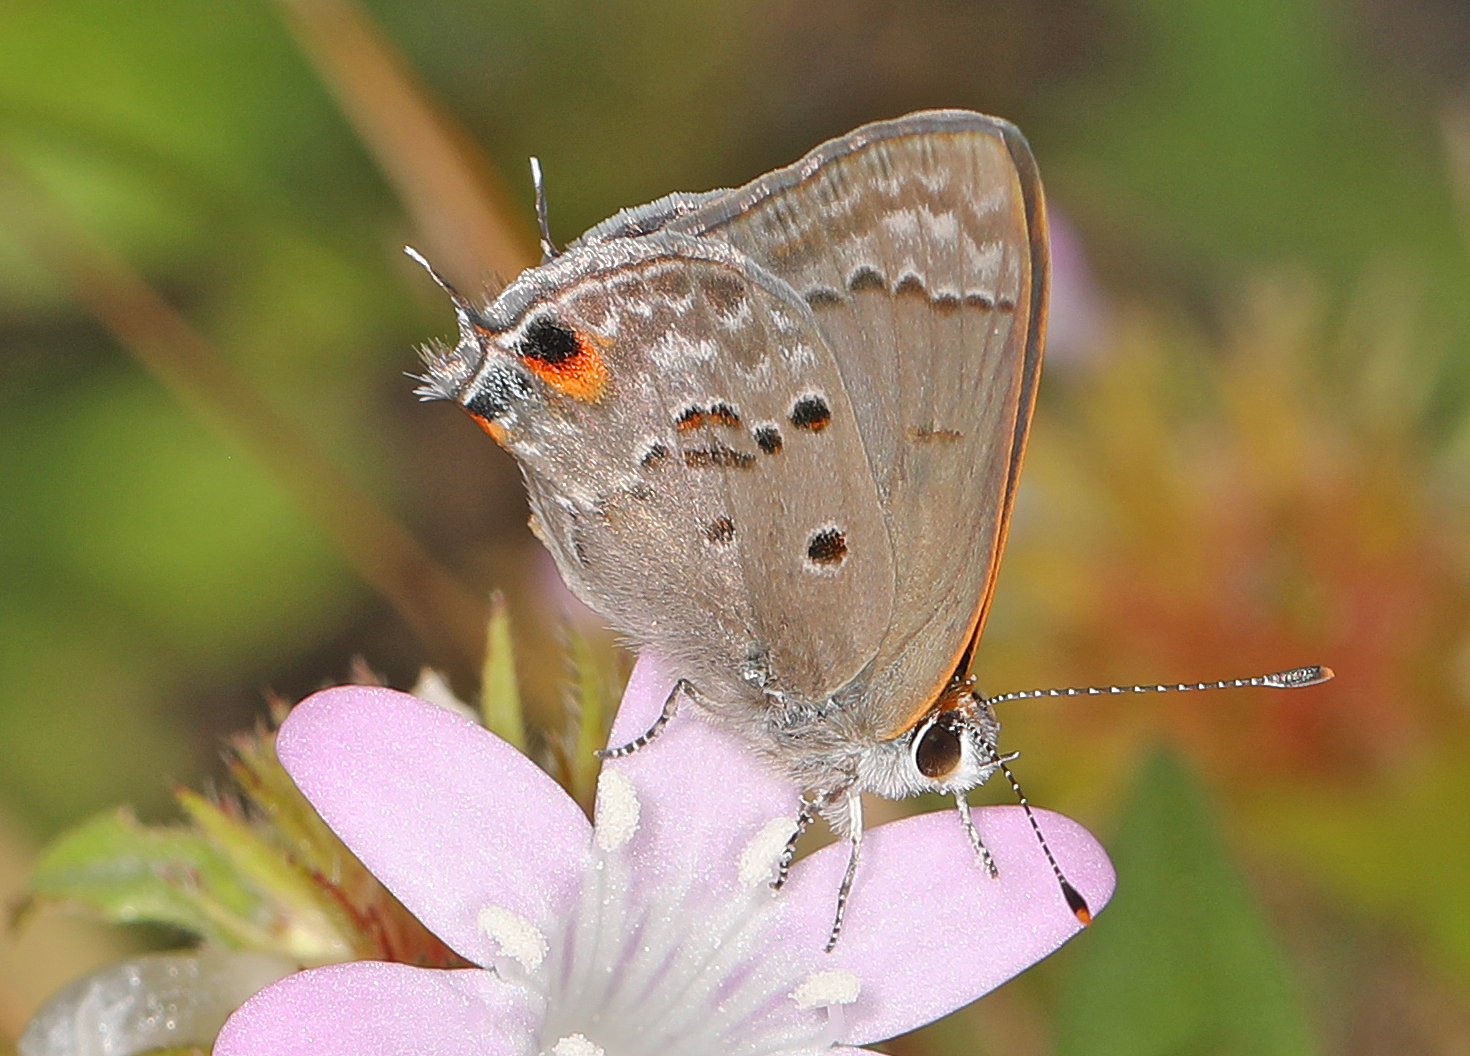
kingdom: Animalia
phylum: Arthropoda
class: Insecta
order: Lepidoptera
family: Lycaenidae
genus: Callicista
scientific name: Callicista columella
